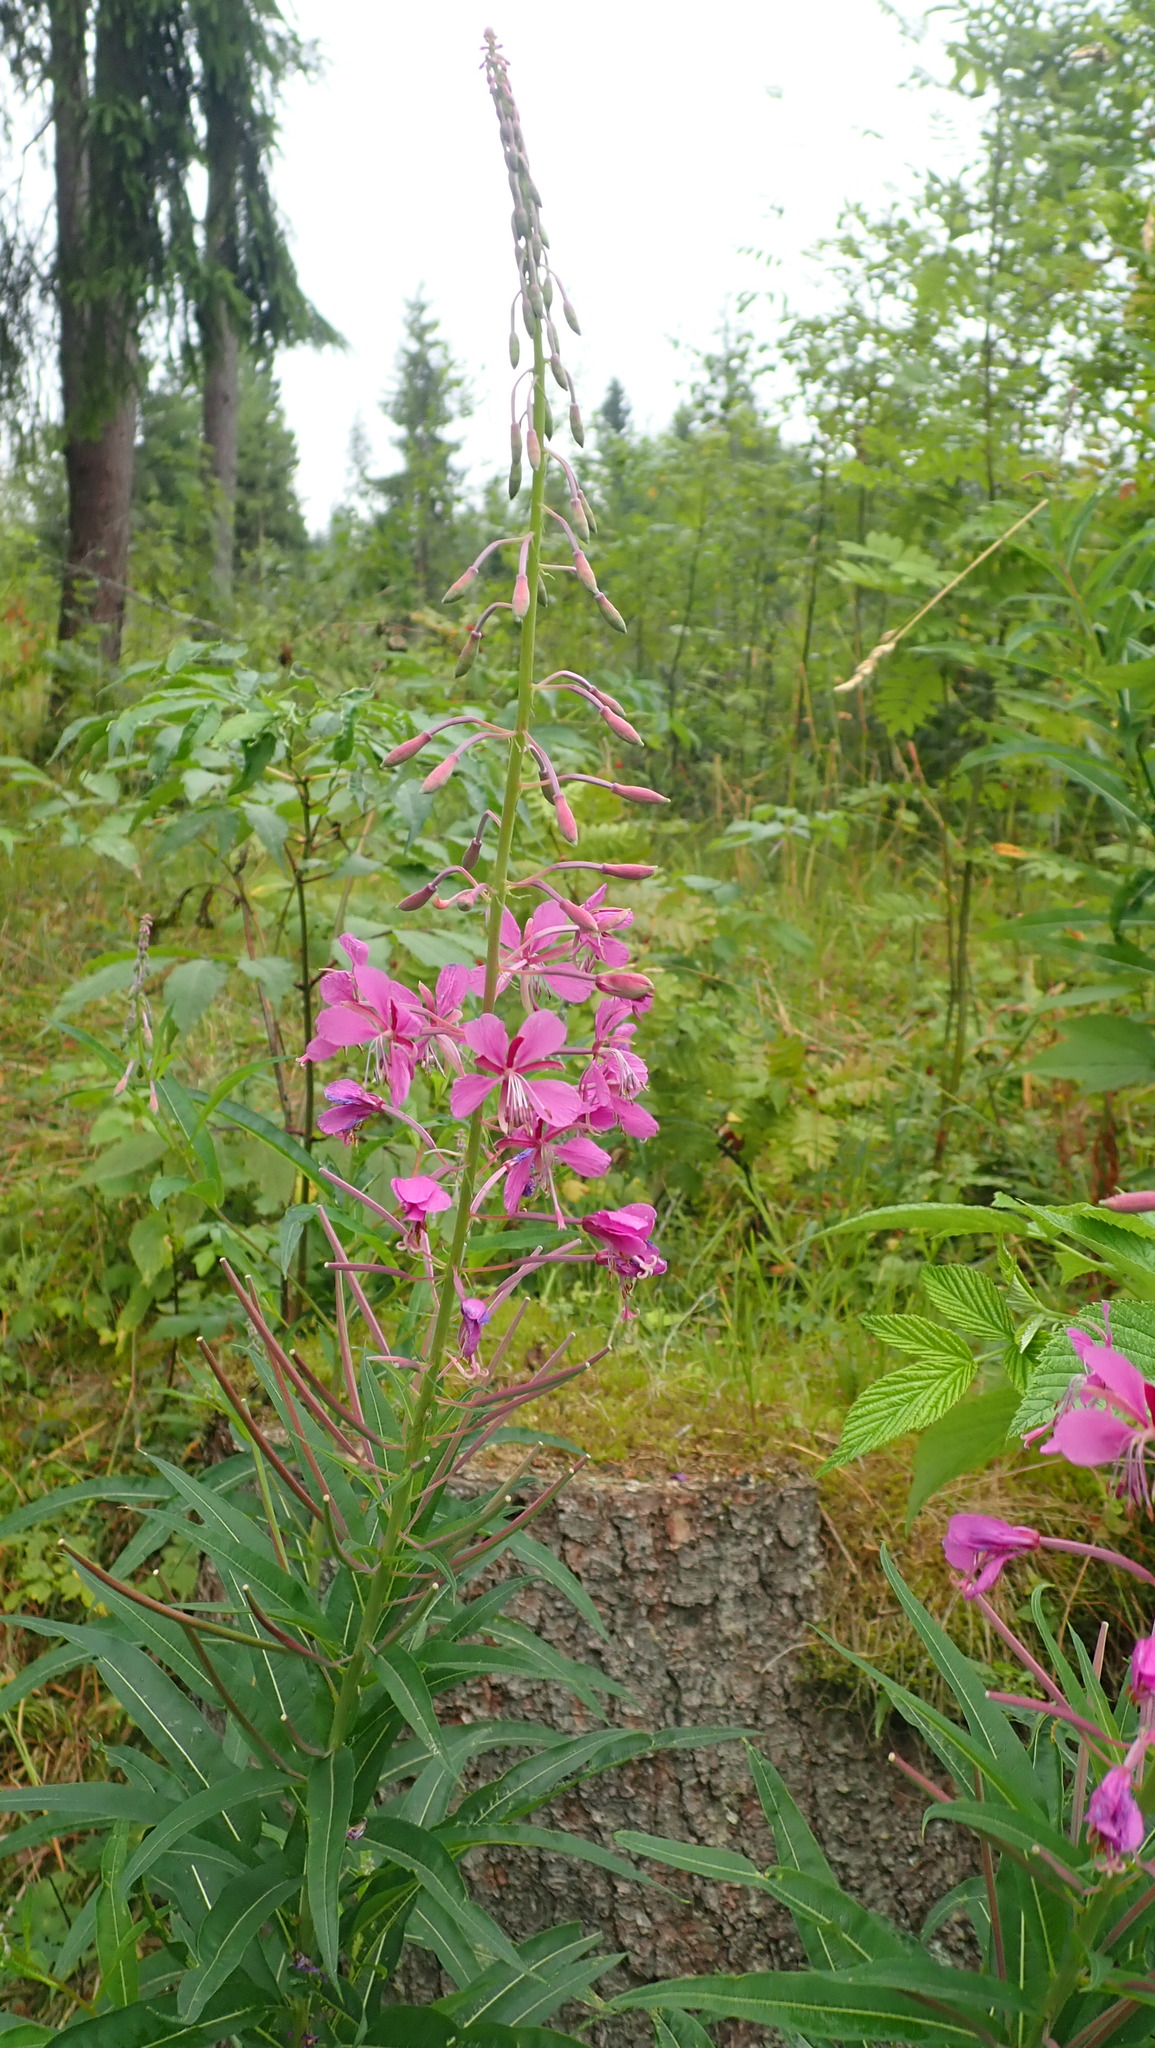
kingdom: Plantae
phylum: Tracheophyta
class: Magnoliopsida
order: Myrtales
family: Onagraceae
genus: Chamaenerion
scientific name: Chamaenerion angustifolium
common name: Fireweed
